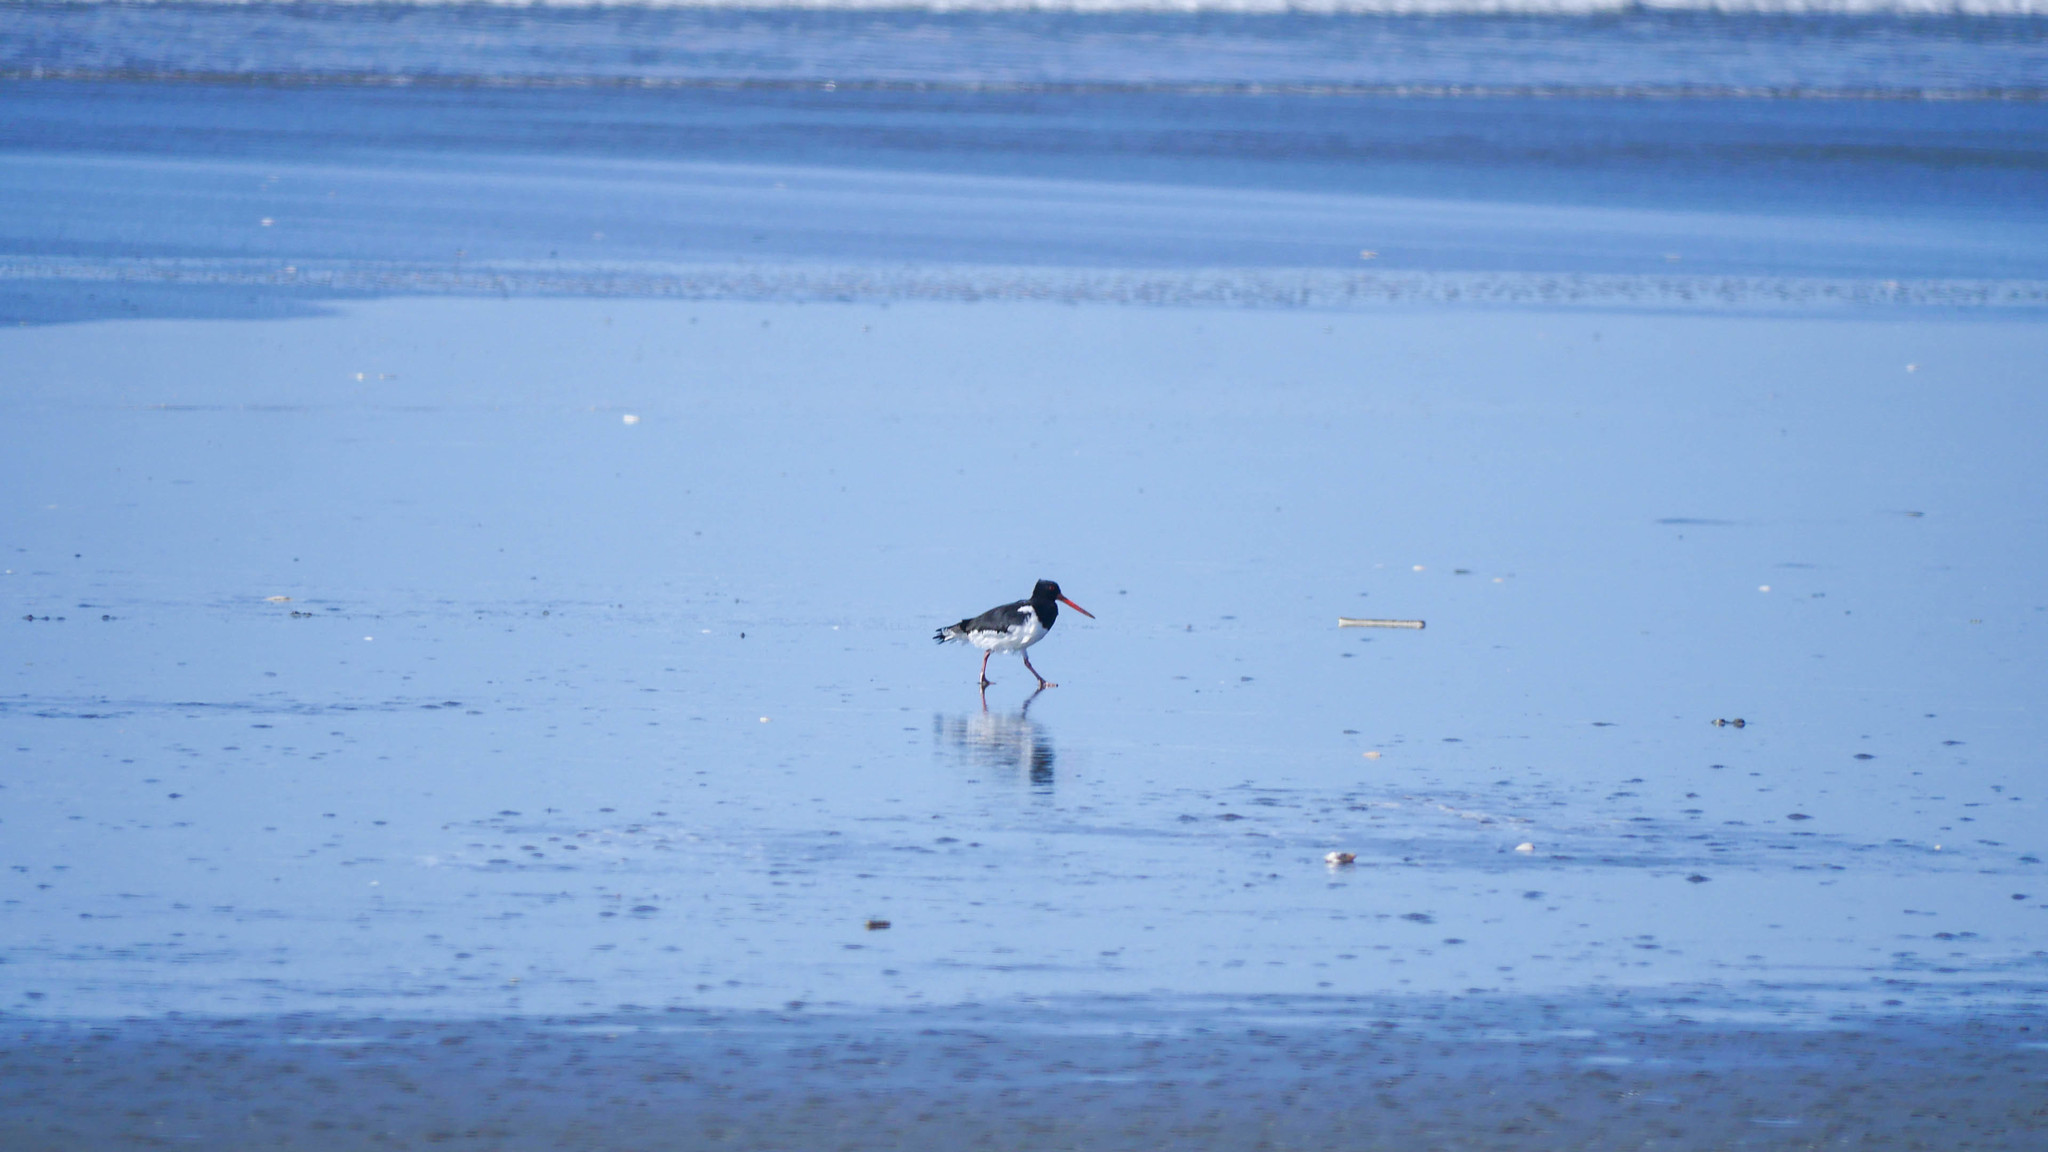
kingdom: Animalia
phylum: Chordata
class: Aves
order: Charadriiformes
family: Haematopodidae
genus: Haematopus
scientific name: Haematopus finschi
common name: South island oystercatcher
